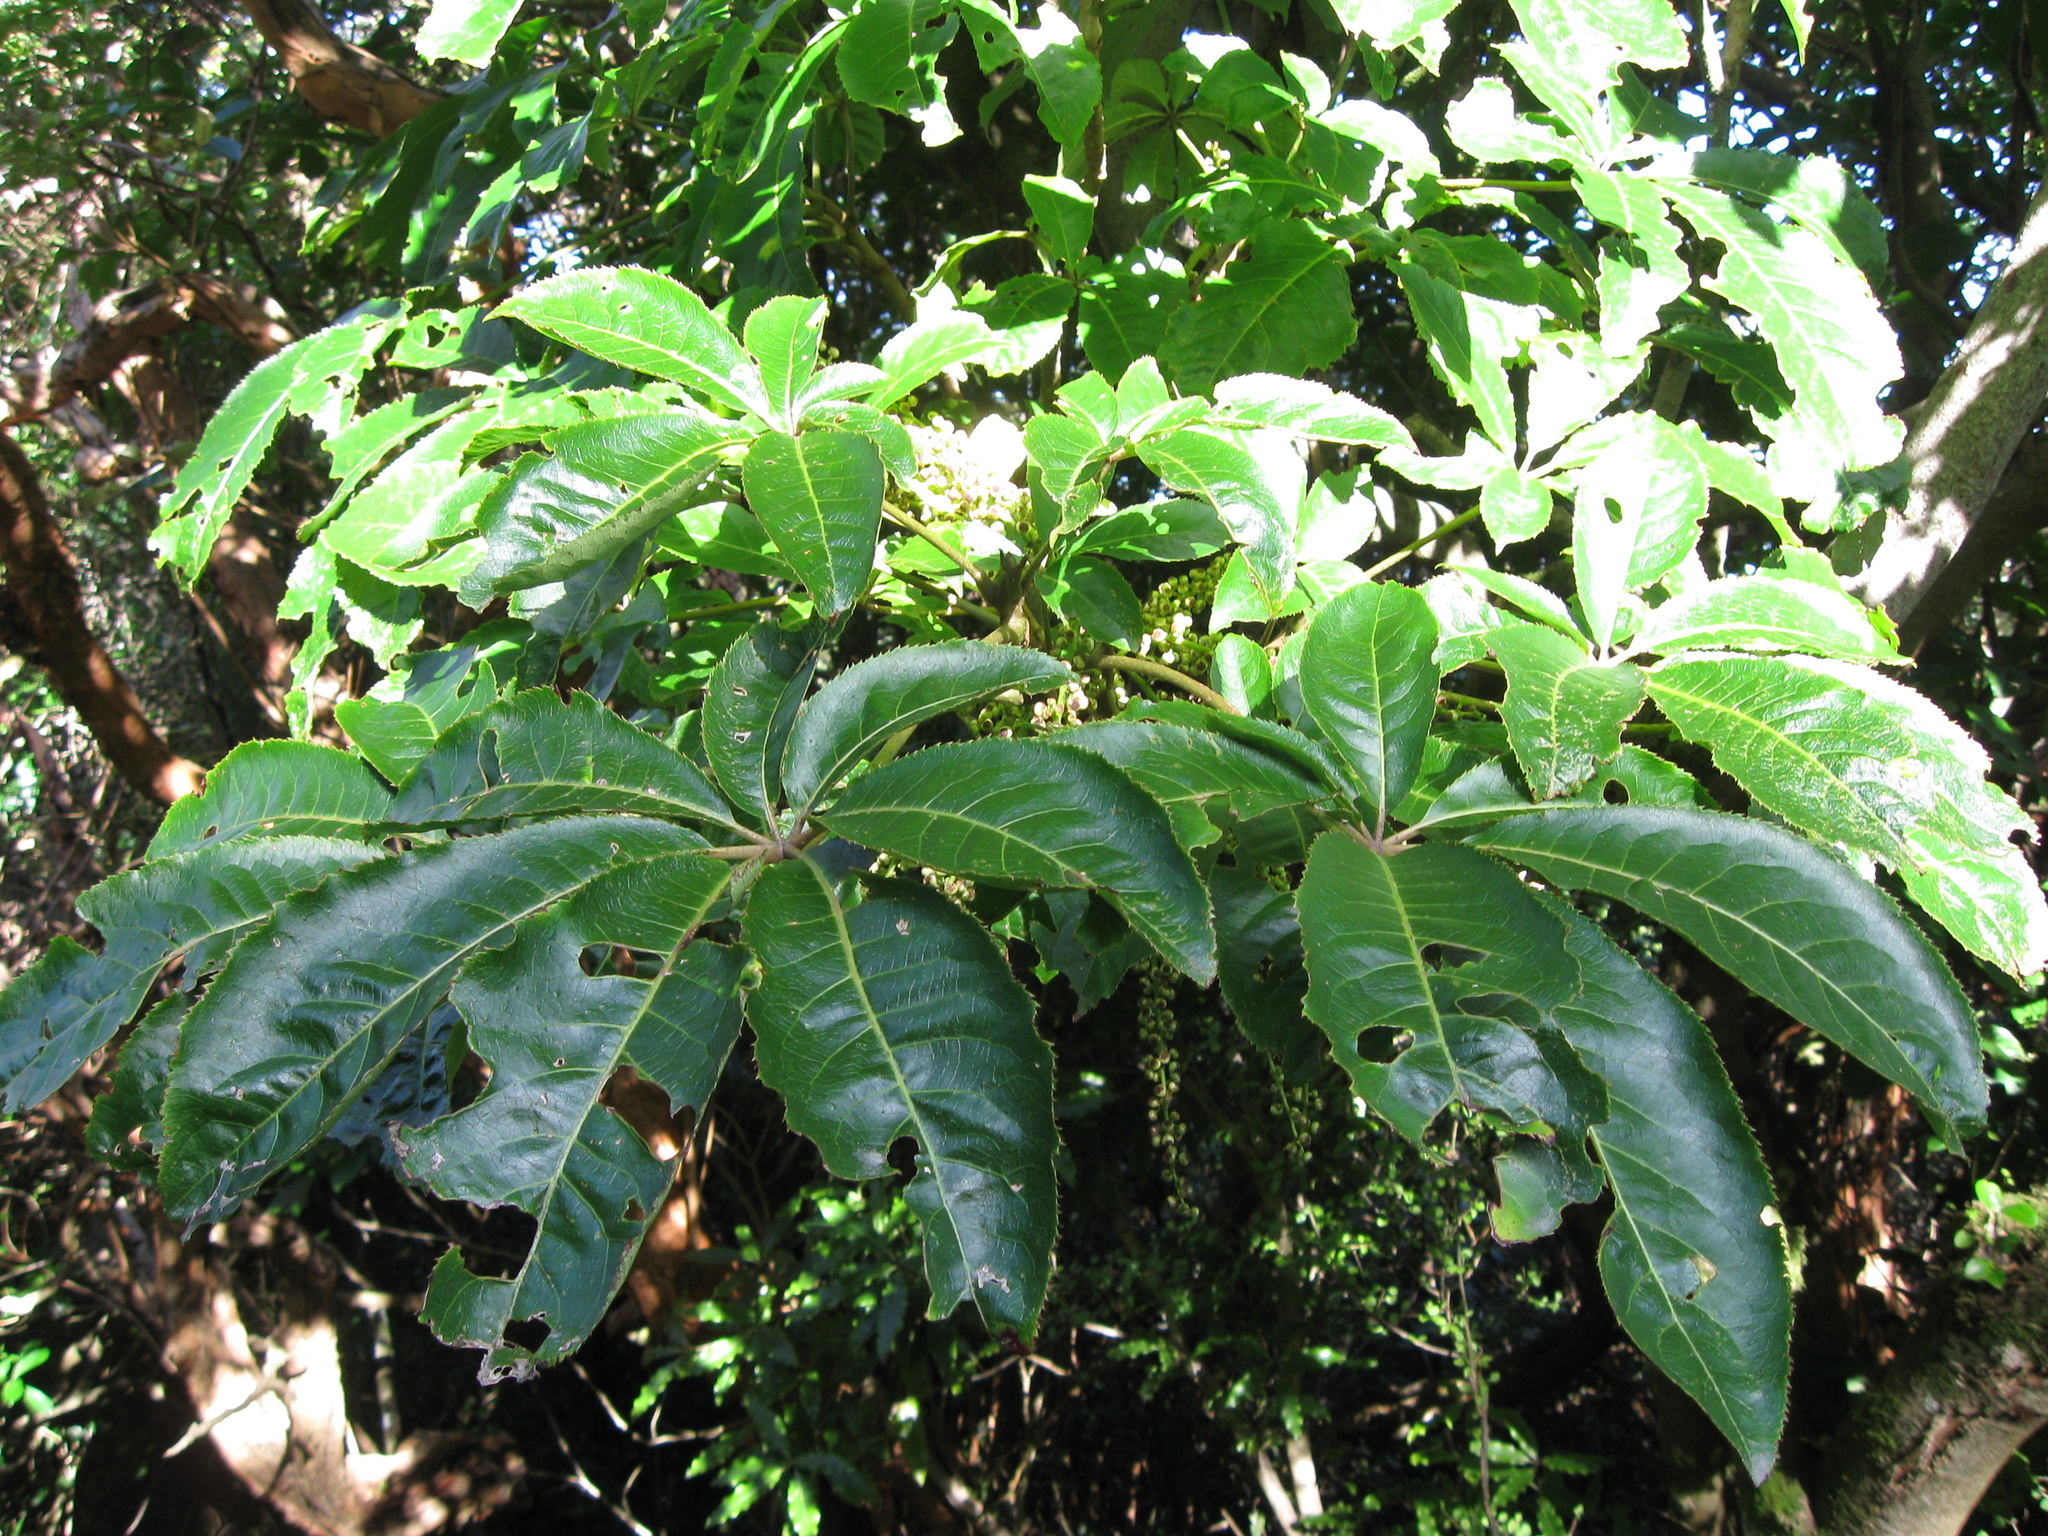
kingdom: Plantae
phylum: Tracheophyta
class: Magnoliopsida
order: Apiales
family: Araliaceae
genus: Schefflera
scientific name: Schefflera digitata
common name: Pate
